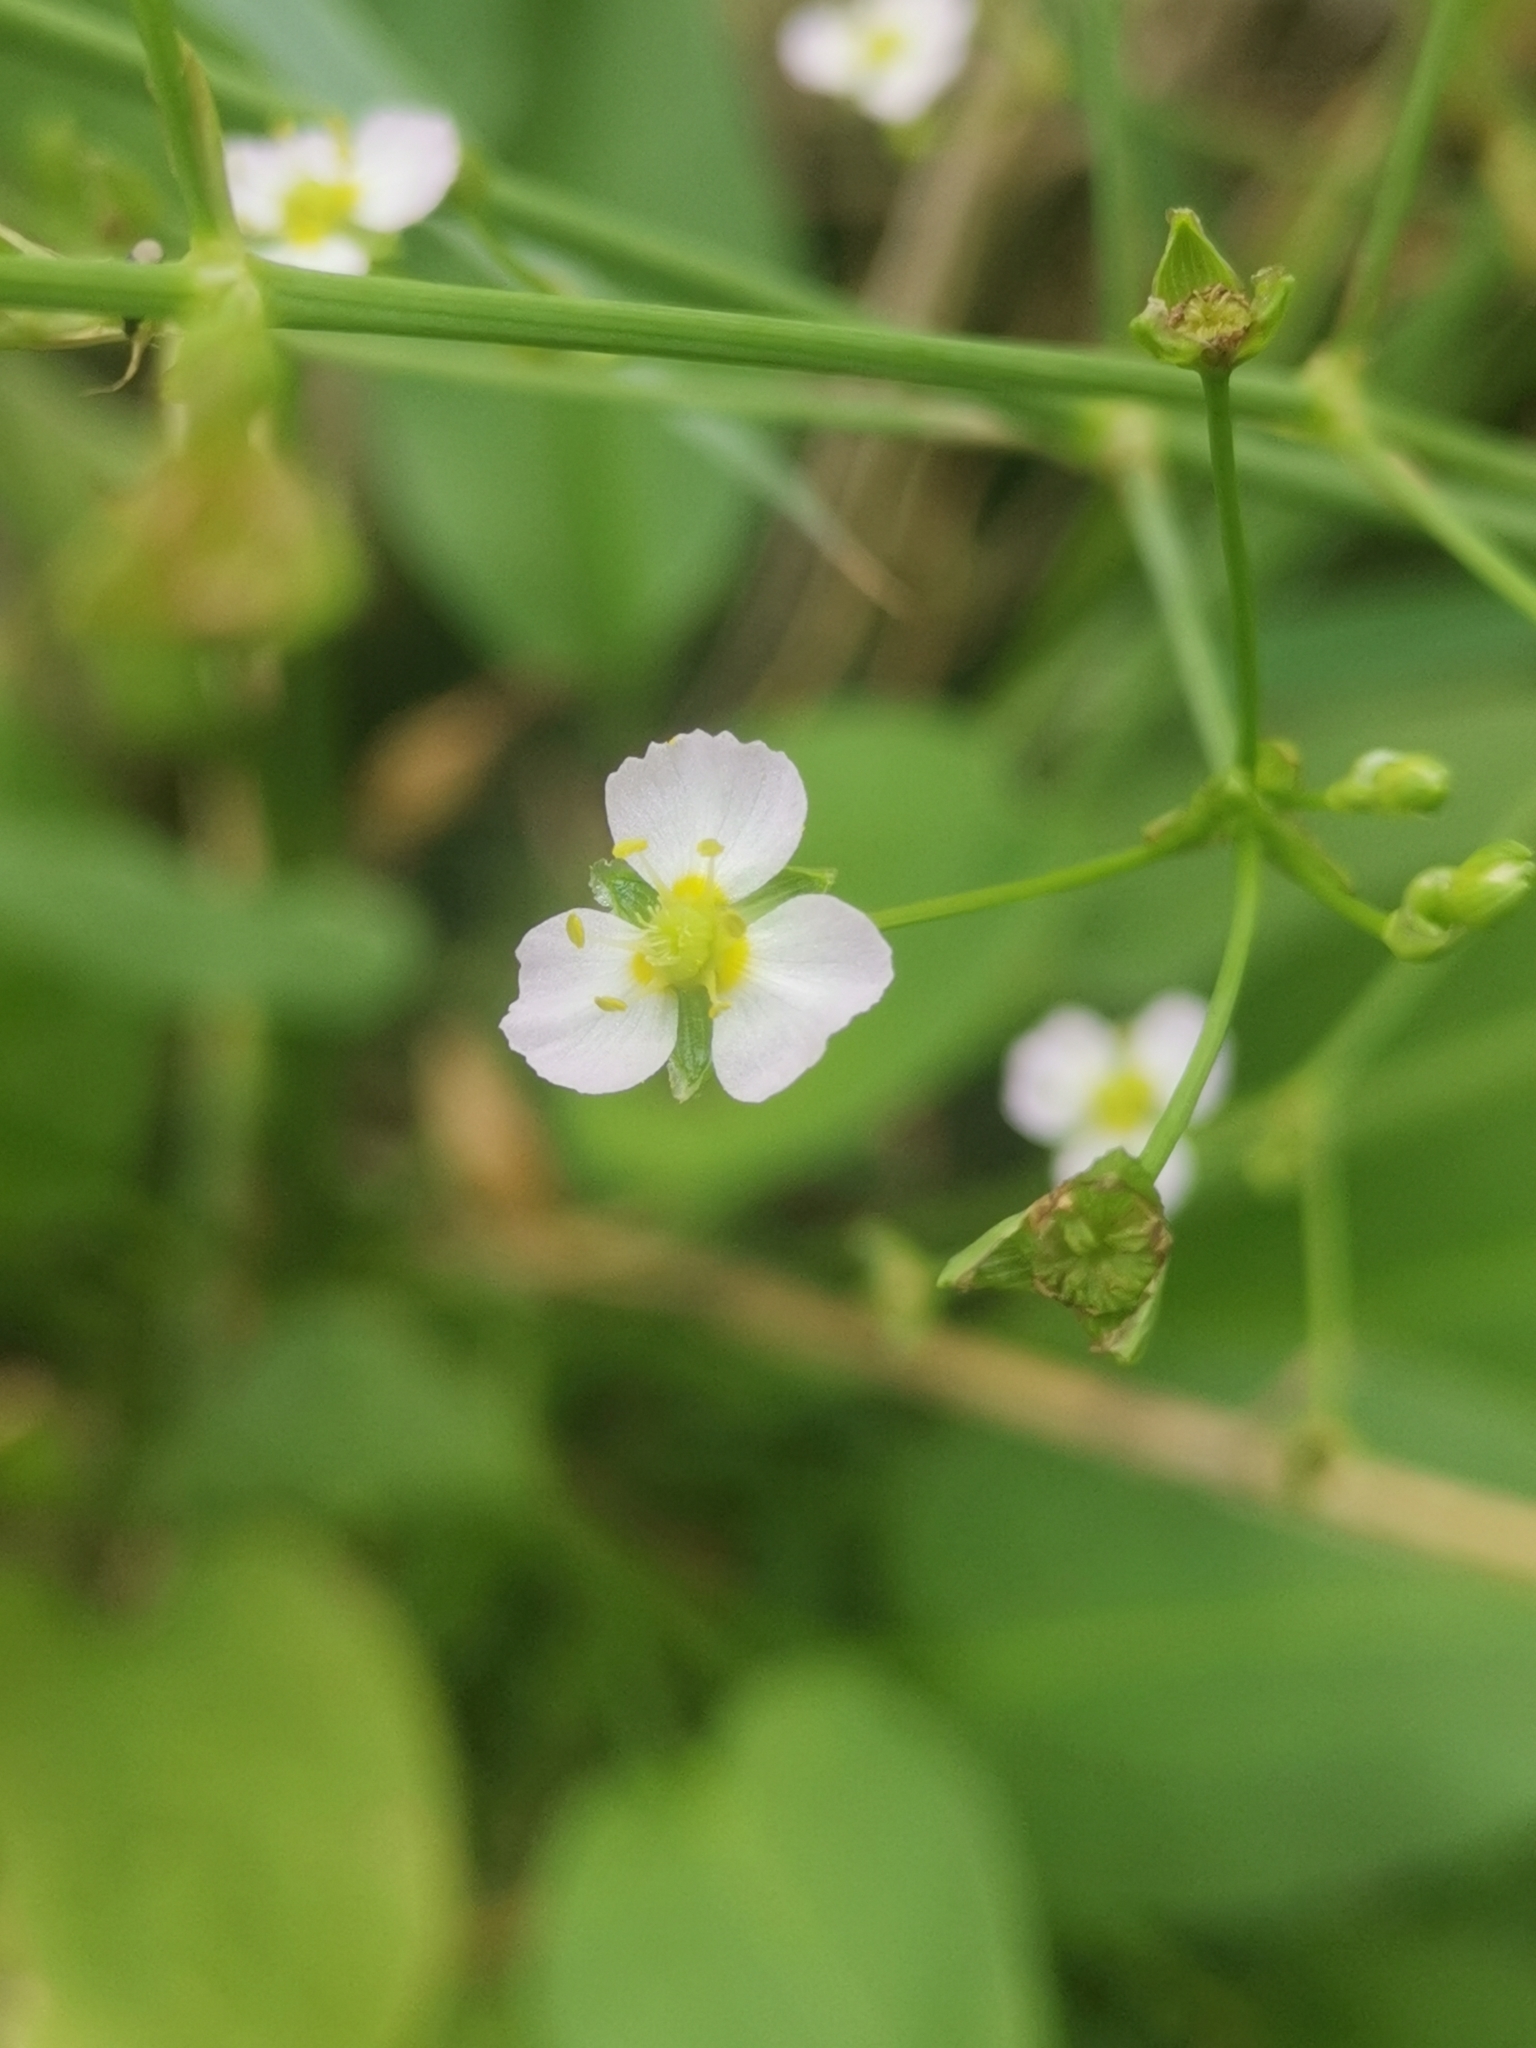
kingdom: Plantae
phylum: Tracheophyta
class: Liliopsida
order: Alismatales
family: Alismataceae
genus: Alisma
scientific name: Alisma plantago-aquatica
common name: Water-plantain
